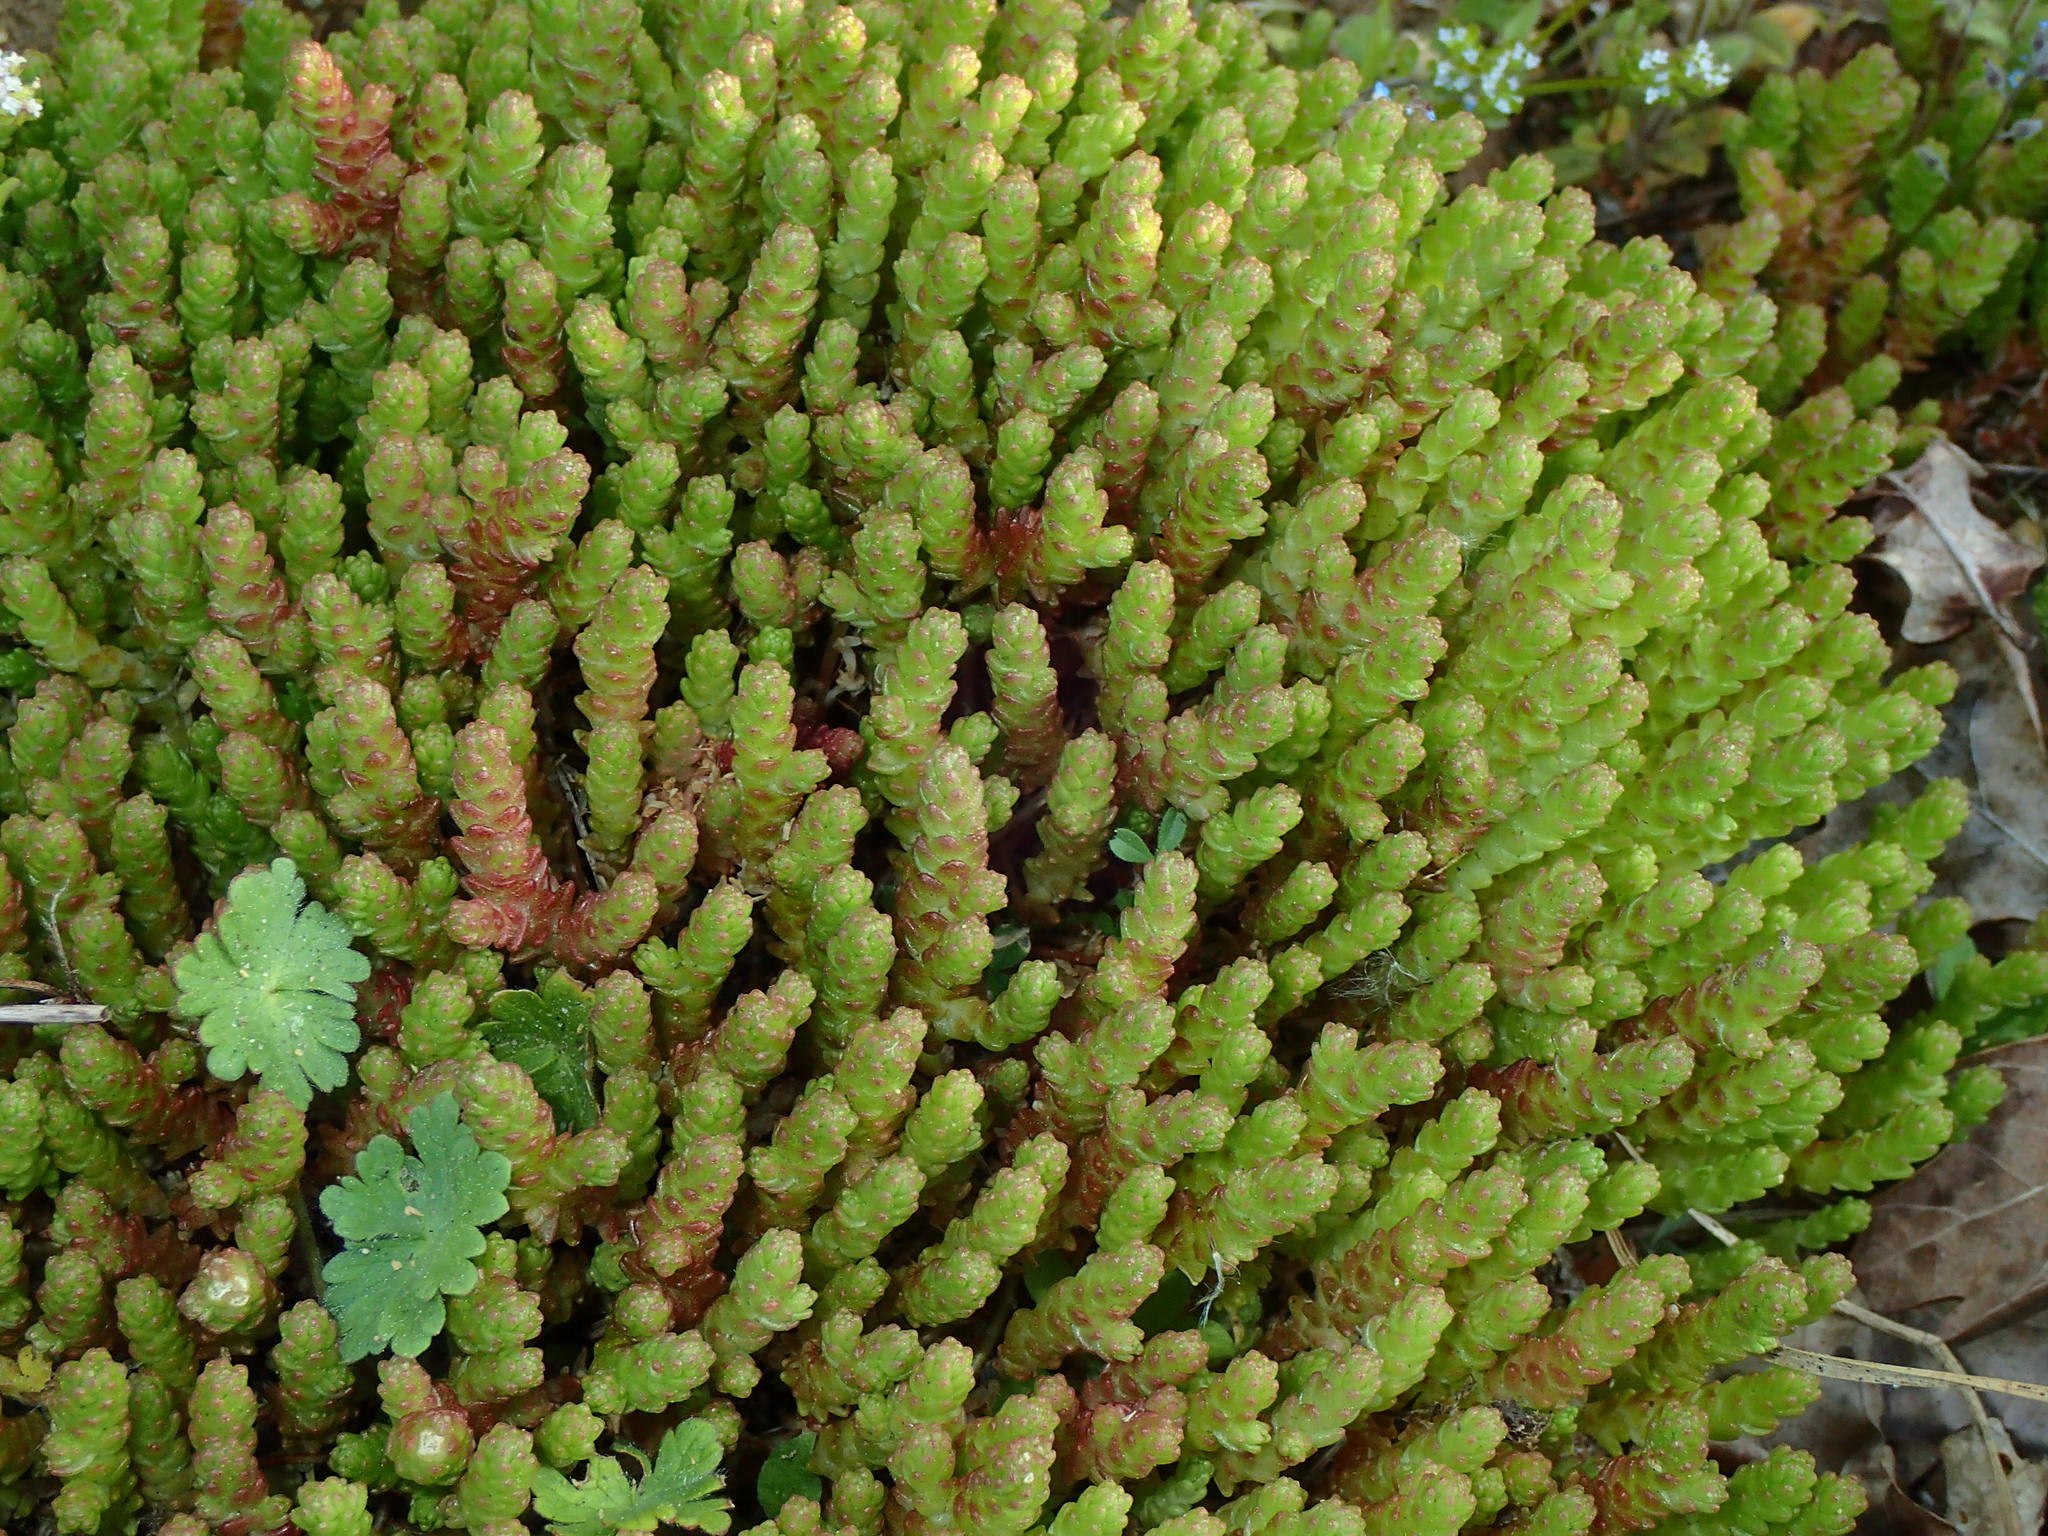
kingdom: Plantae
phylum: Tracheophyta
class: Magnoliopsida
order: Saxifragales
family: Crassulaceae
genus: Sedum
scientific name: Sedum acre
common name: Biting stonecrop
